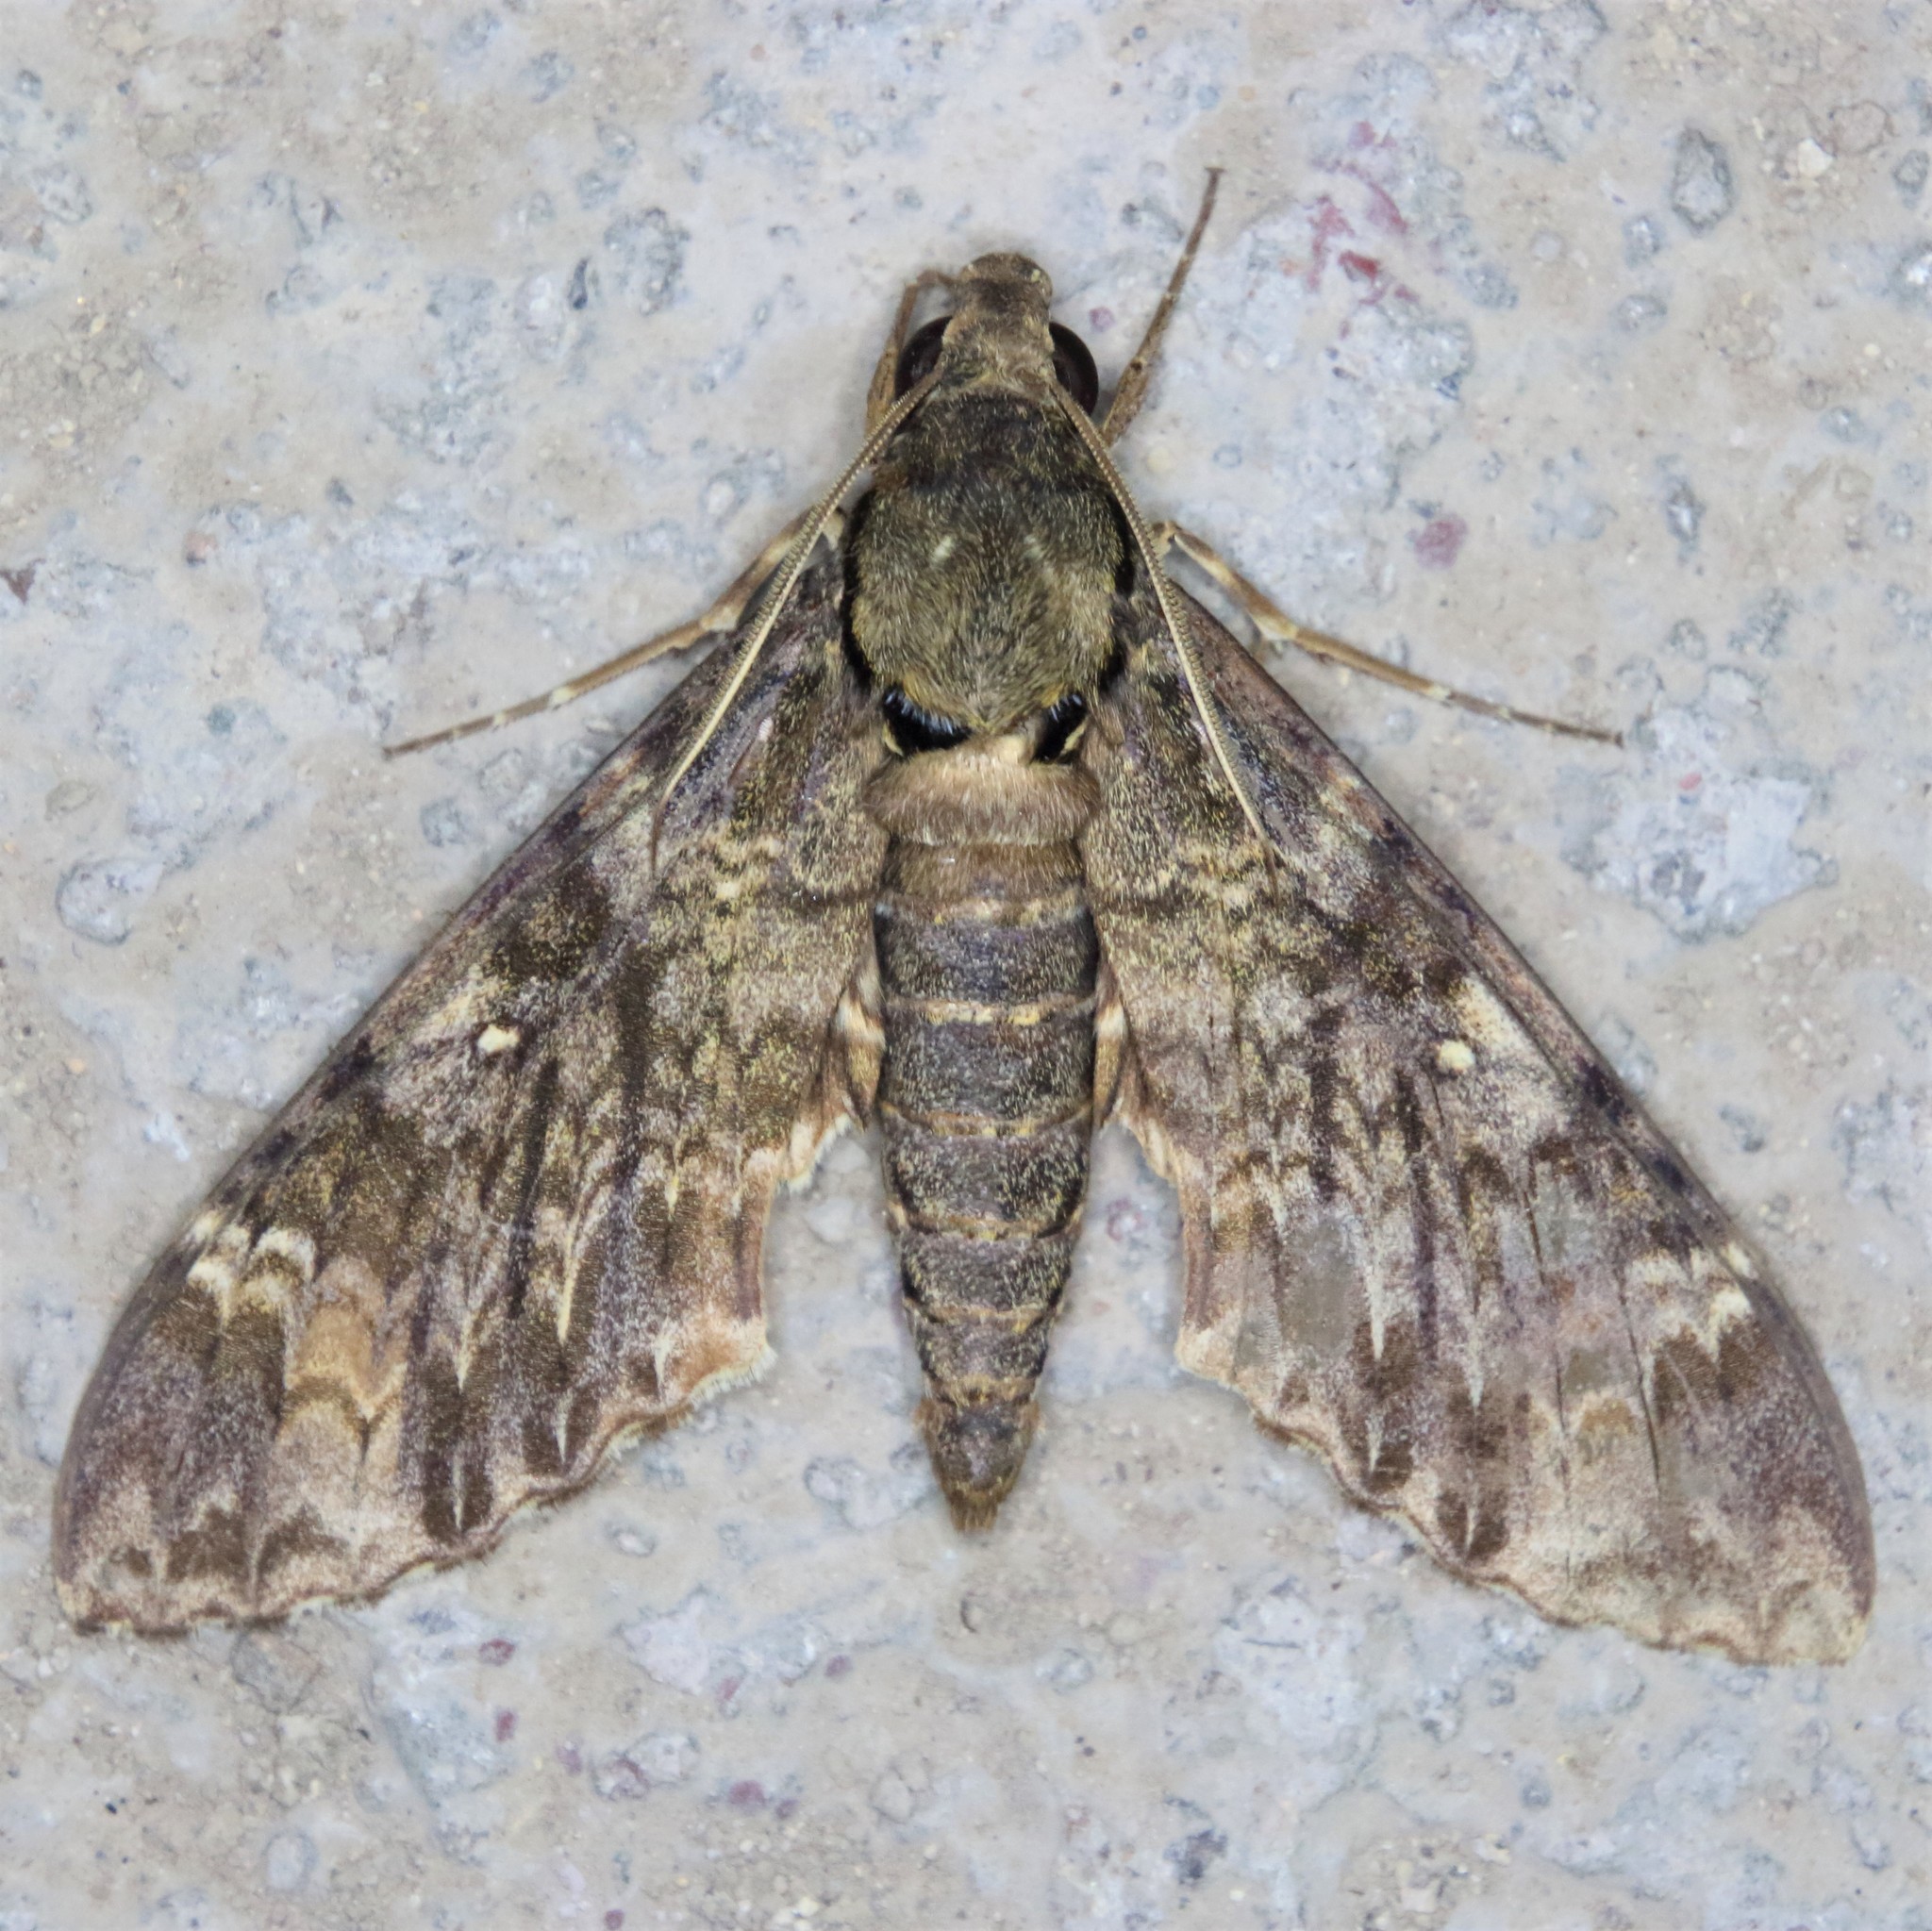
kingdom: Animalia
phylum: Arthropoda
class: Insecta
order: Lepidoptera
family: Sphingidae
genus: Meganoton
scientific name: Meganoton nyctiphanes
